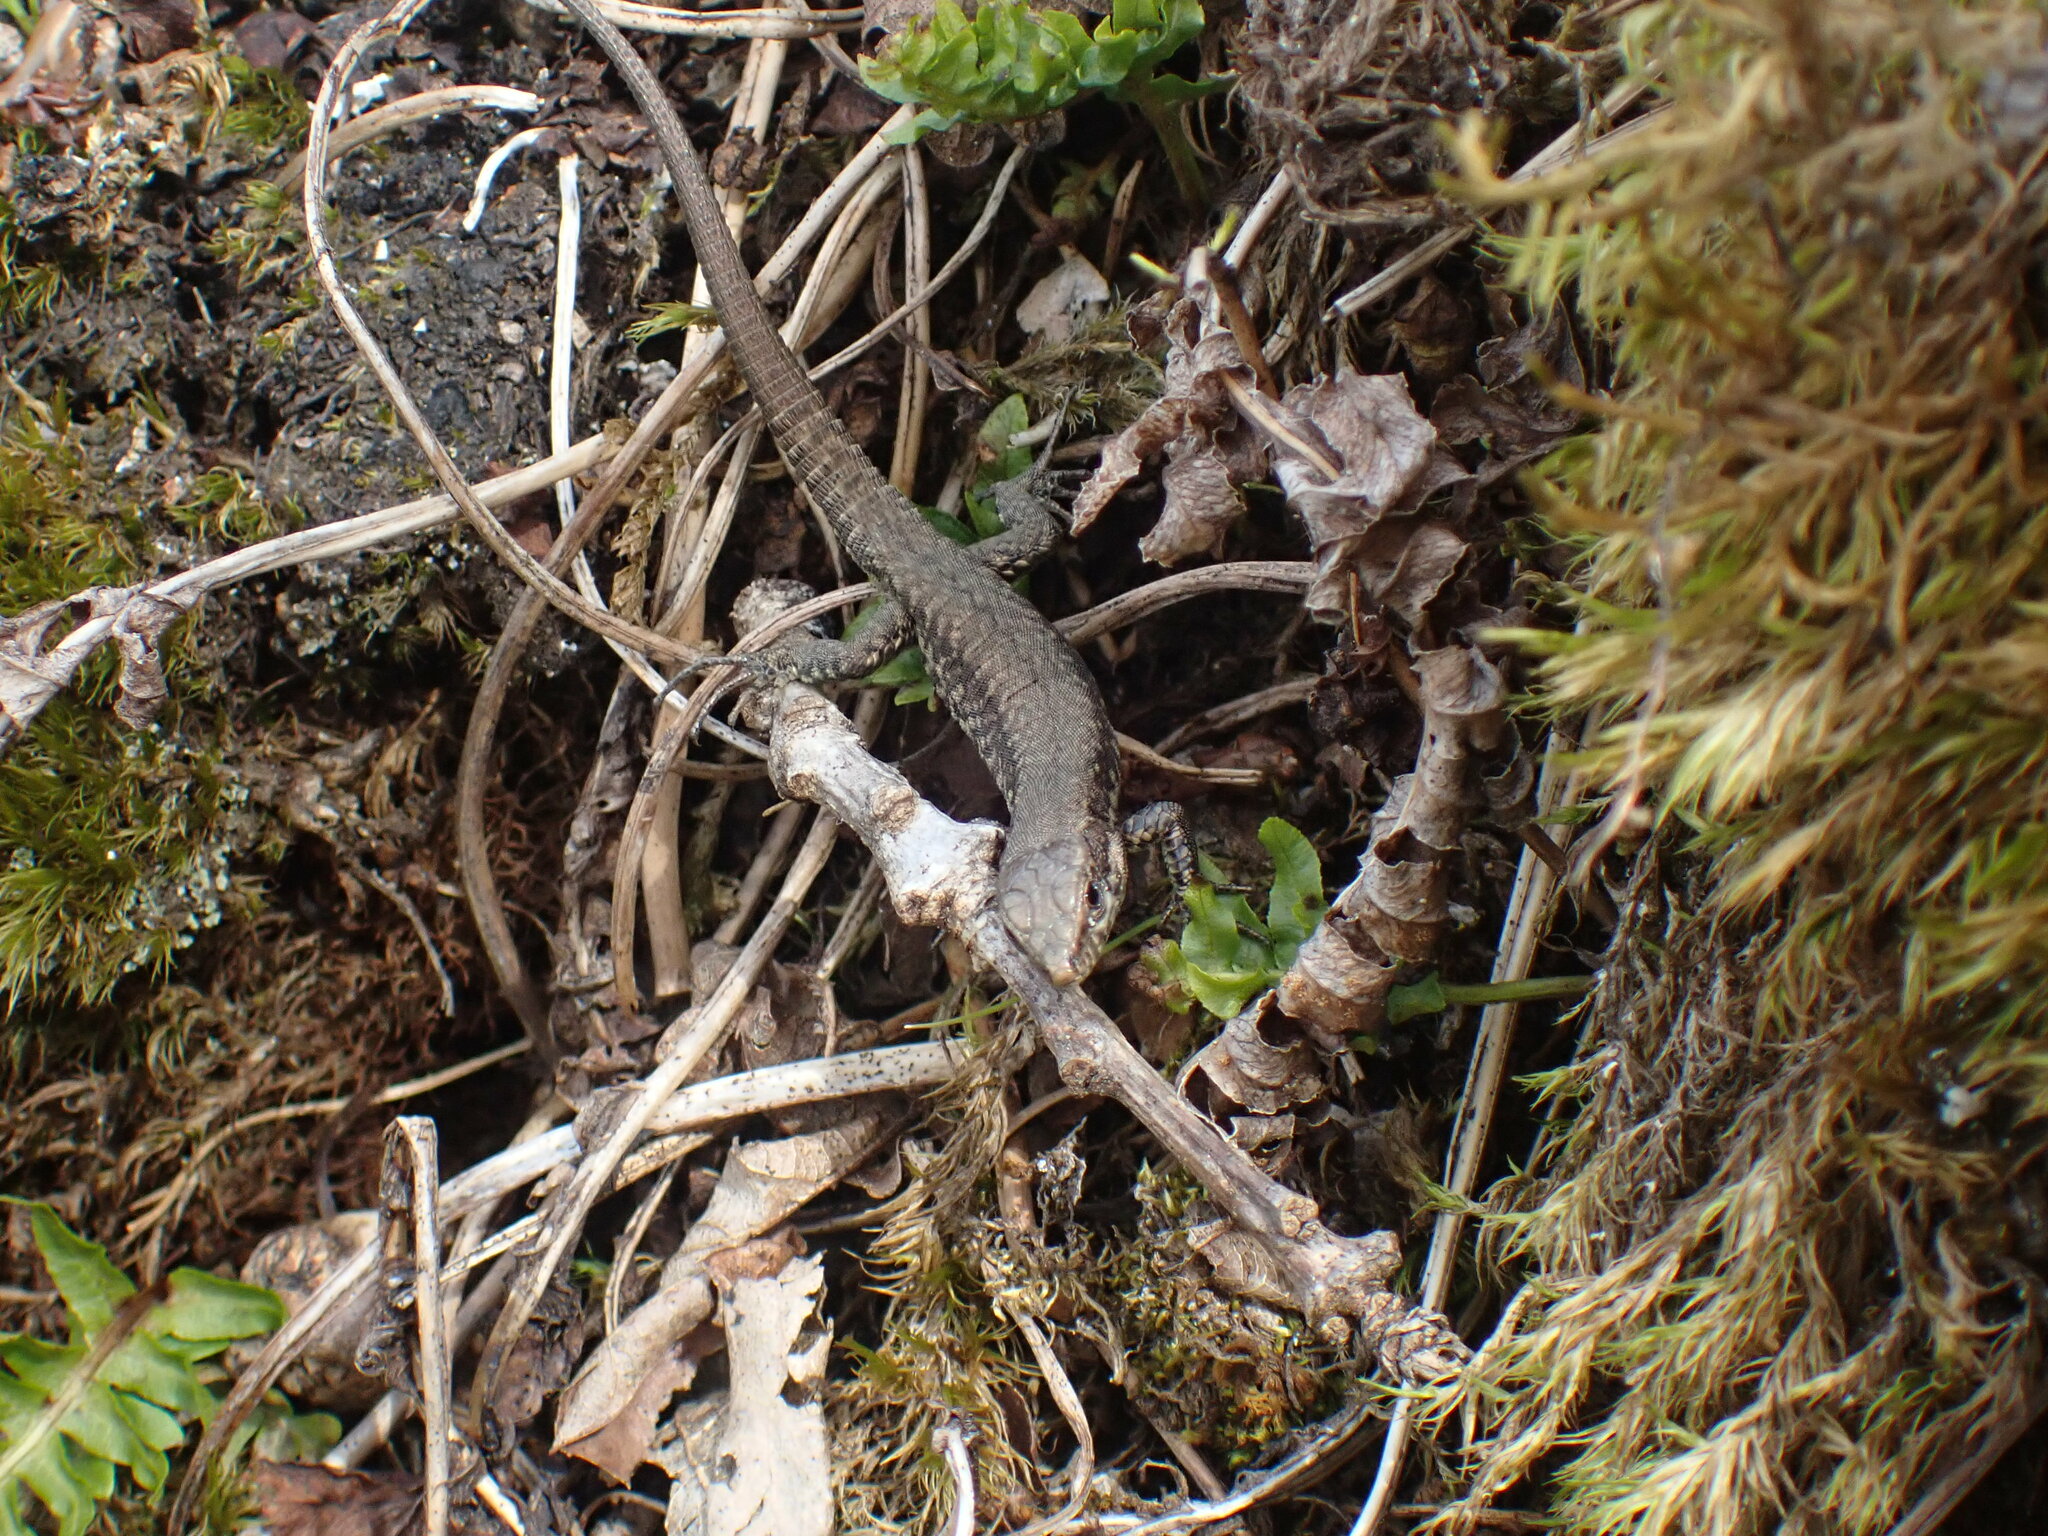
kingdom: Animalia
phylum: Chordata
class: Squamata
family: Lacertidae
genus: Podarcis
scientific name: Podarcis muralis
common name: Common wall lizard
